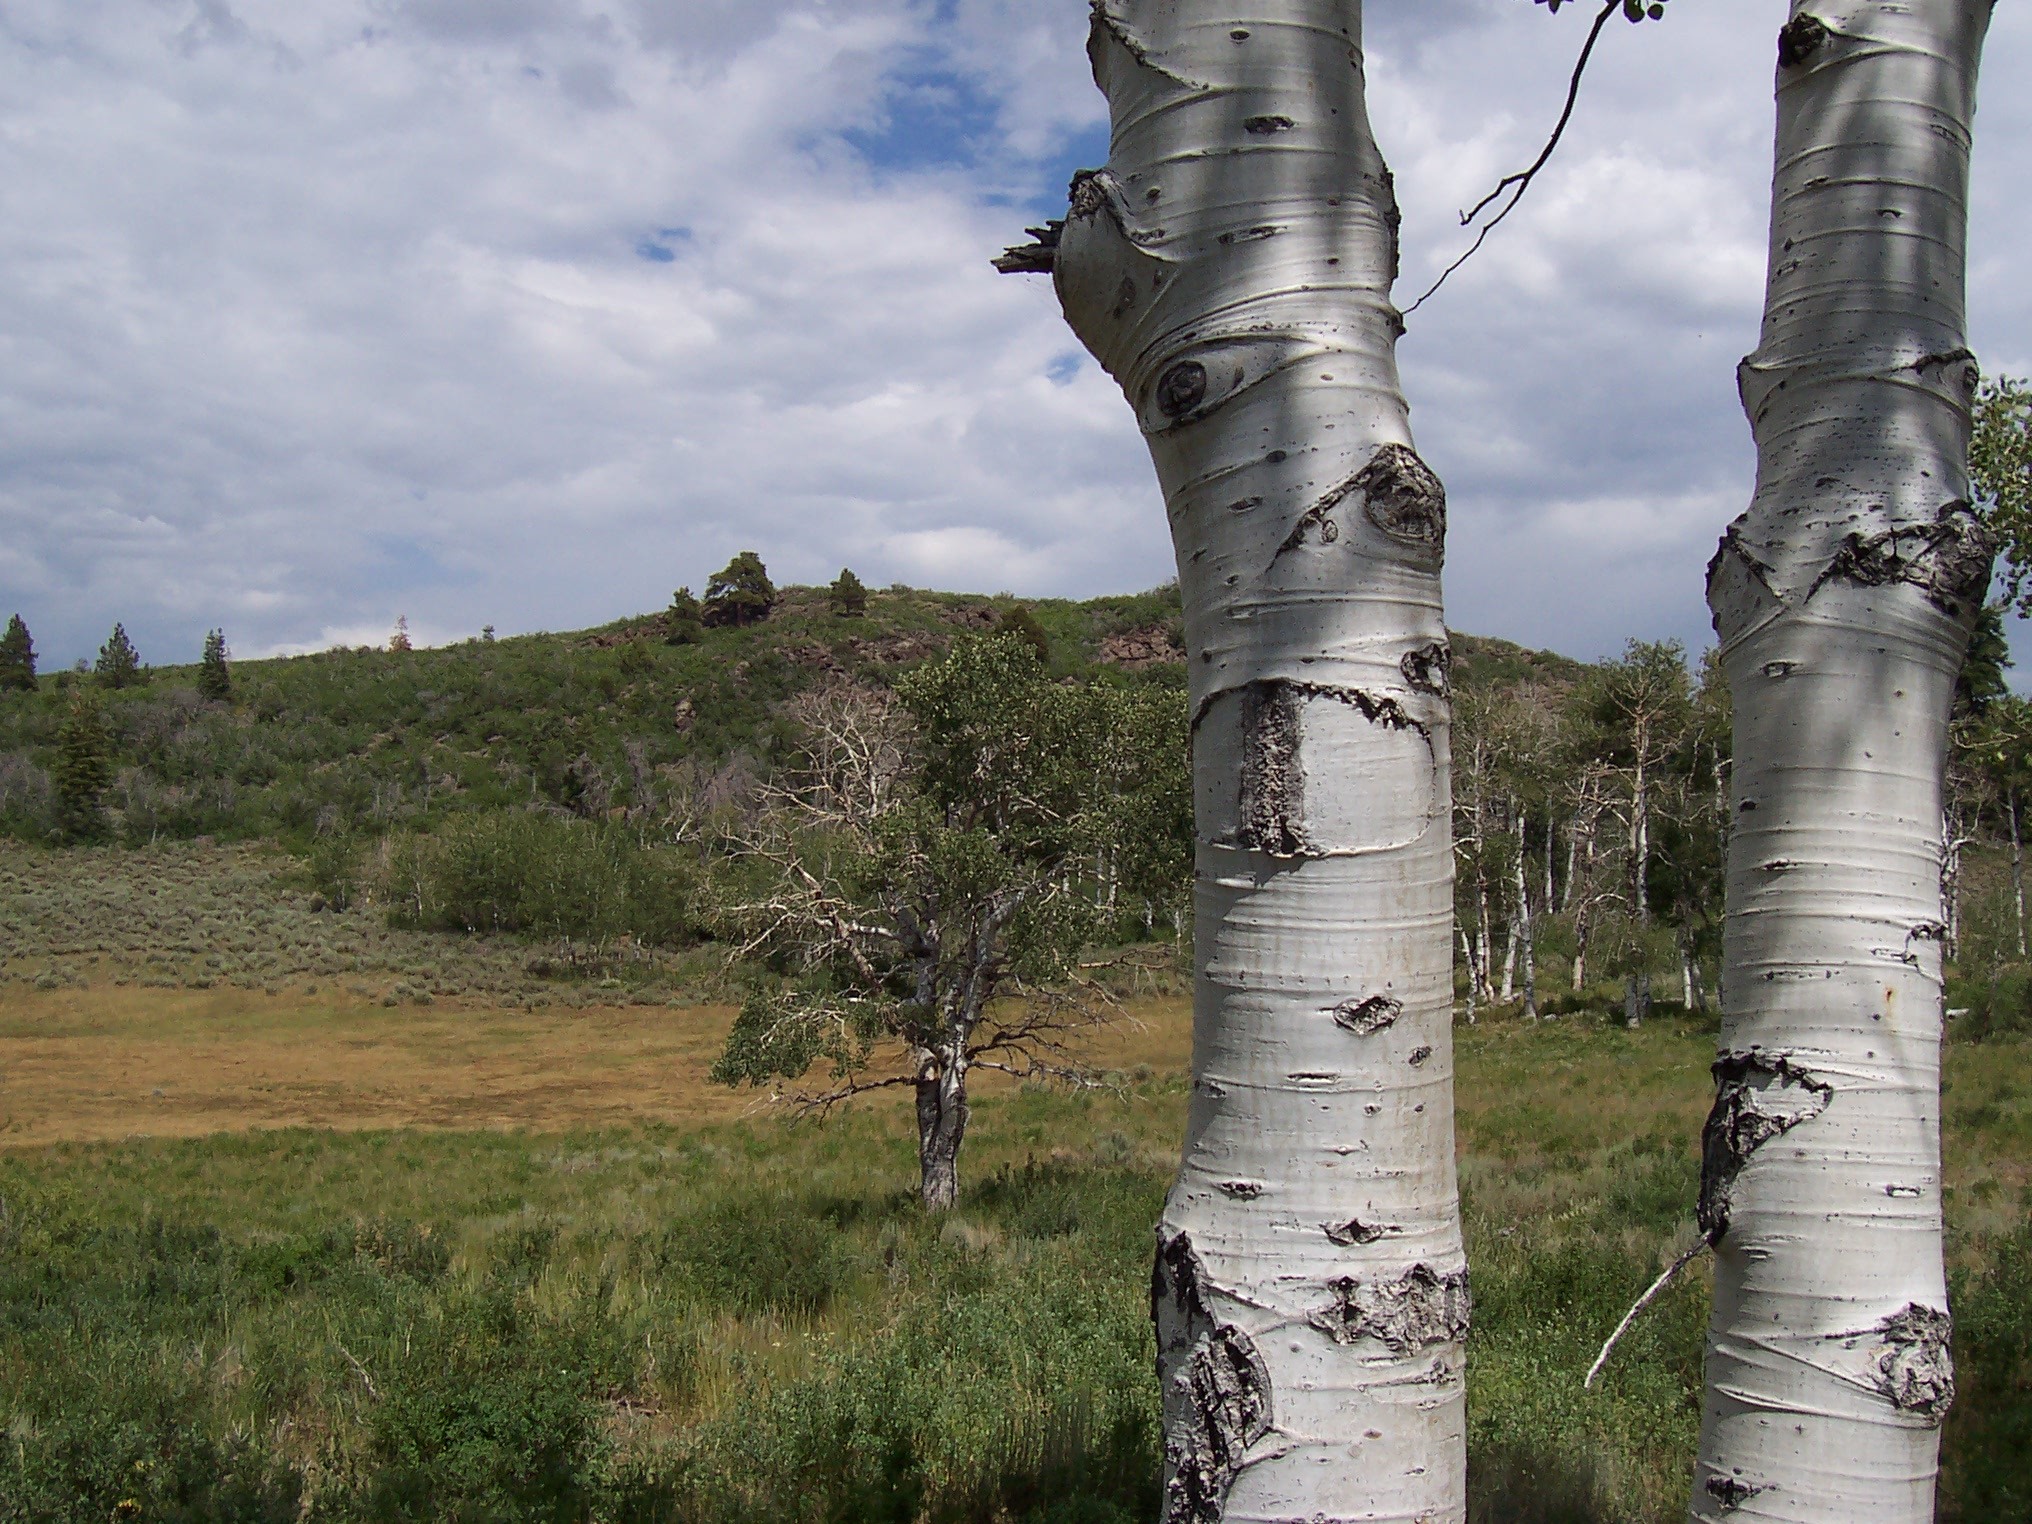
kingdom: Plantae
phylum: Tracheophyta
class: Magnoliopsida
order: Malpighiales
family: Salicaceae
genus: Populus
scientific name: Populus tremuloides
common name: Quaking aspen
